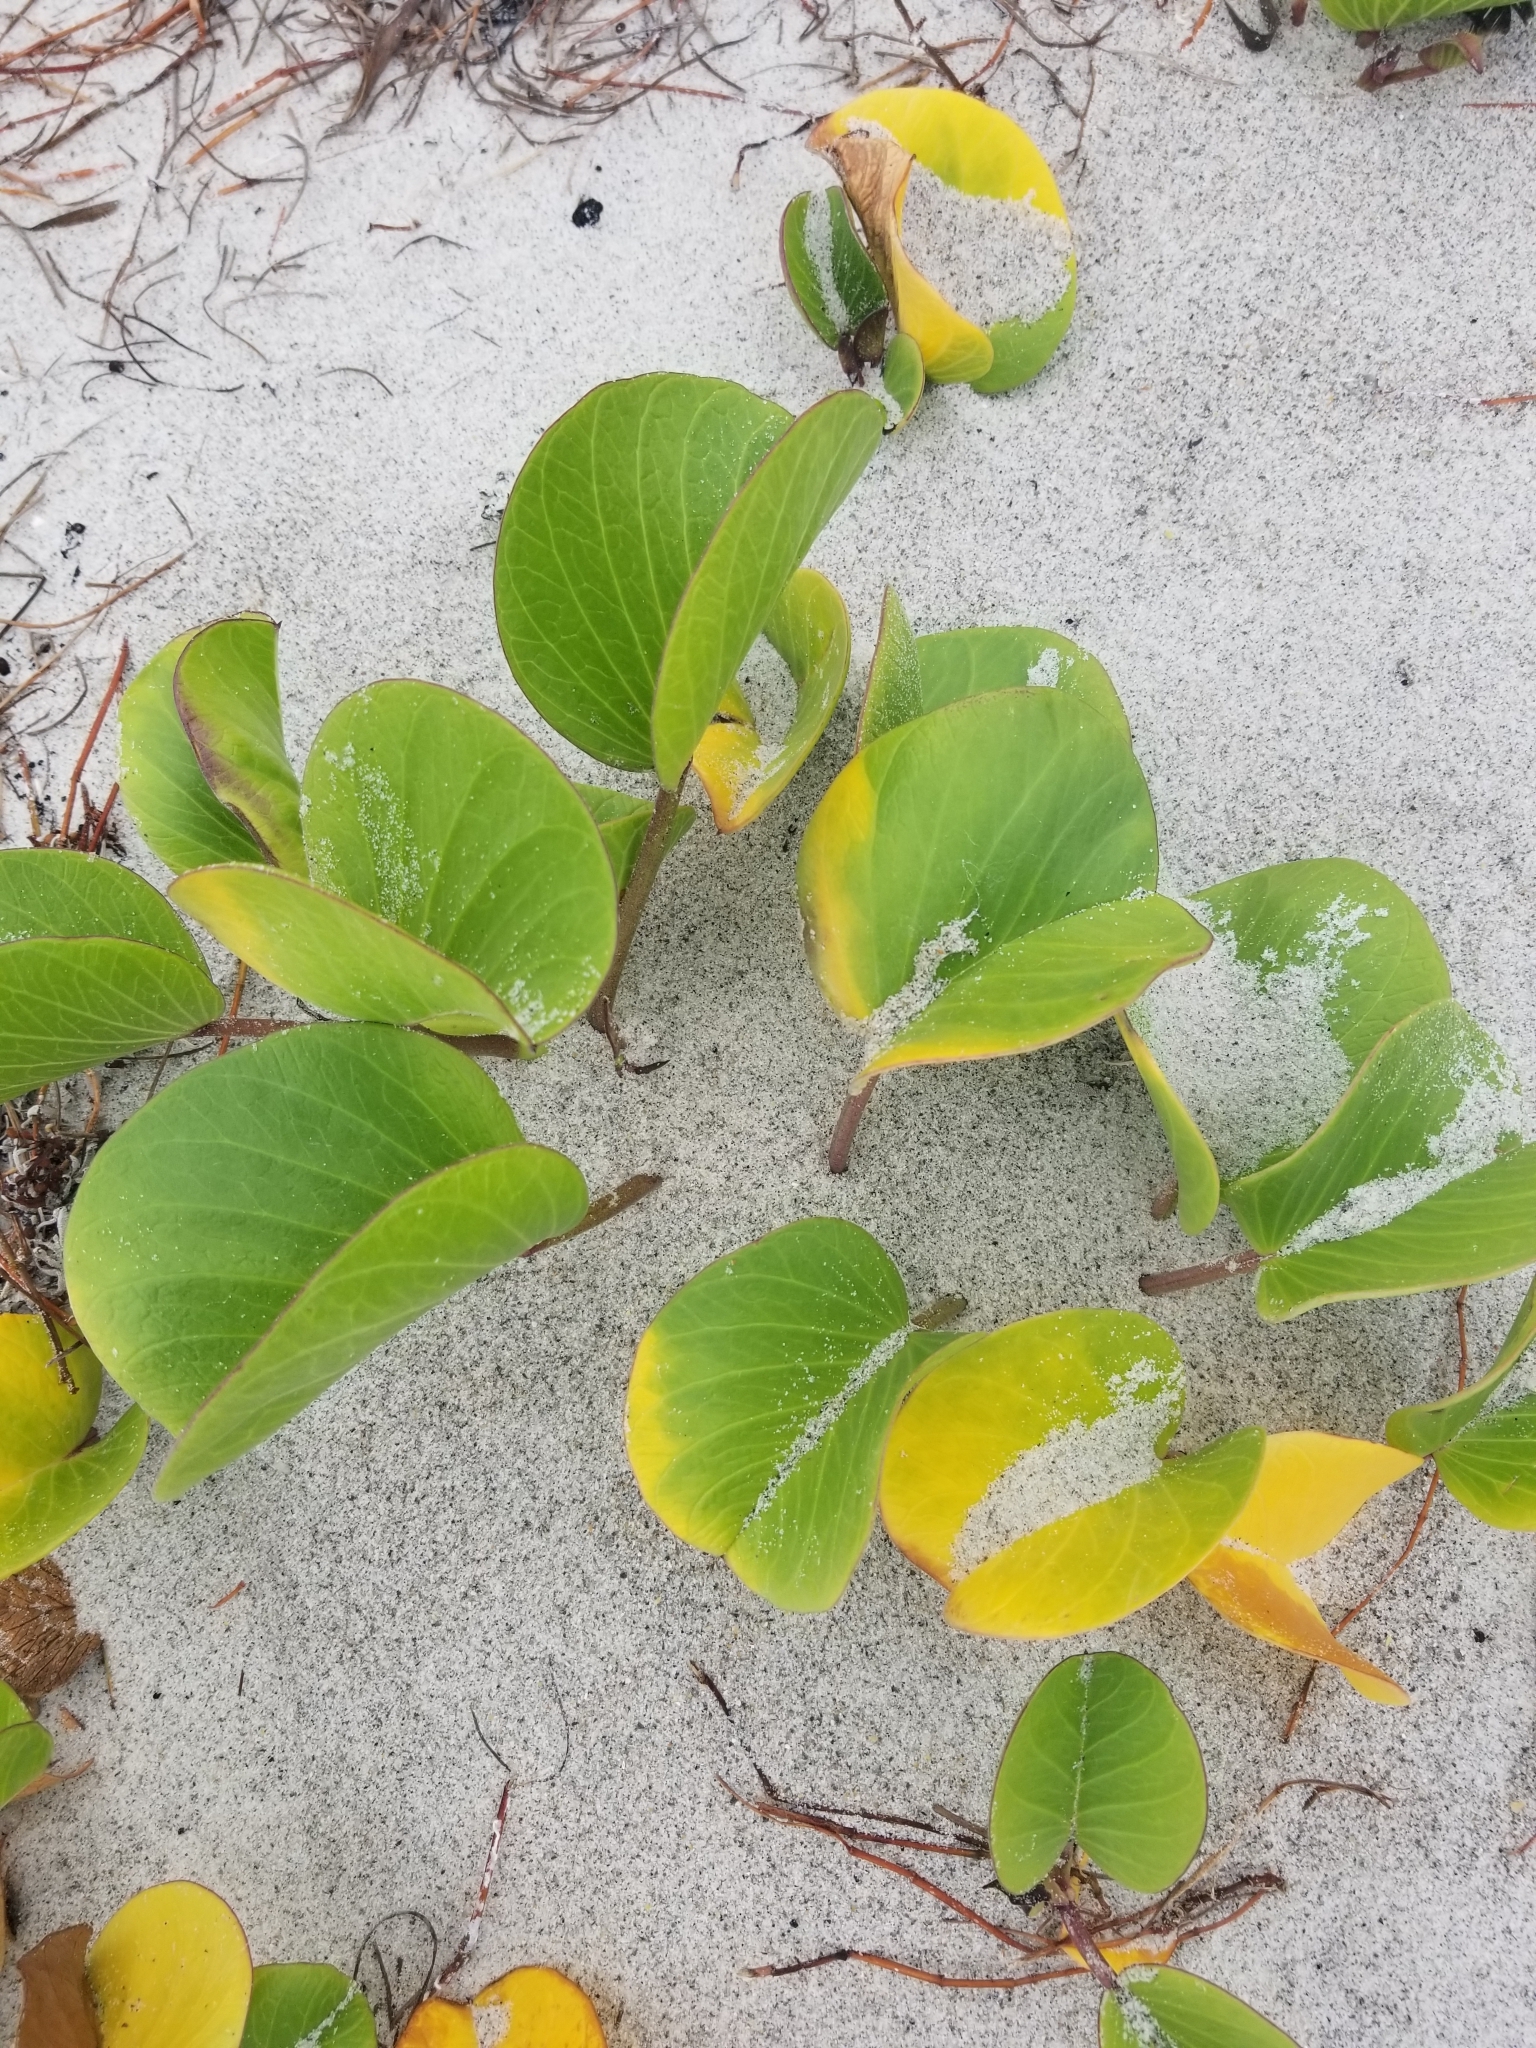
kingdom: Plantae
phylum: Tracheophyta
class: Magnoliopsida
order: Solanales
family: Convolvulaceae
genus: Ipomoea
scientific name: Ipomoea pes-caprae
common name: Beach morning glory
